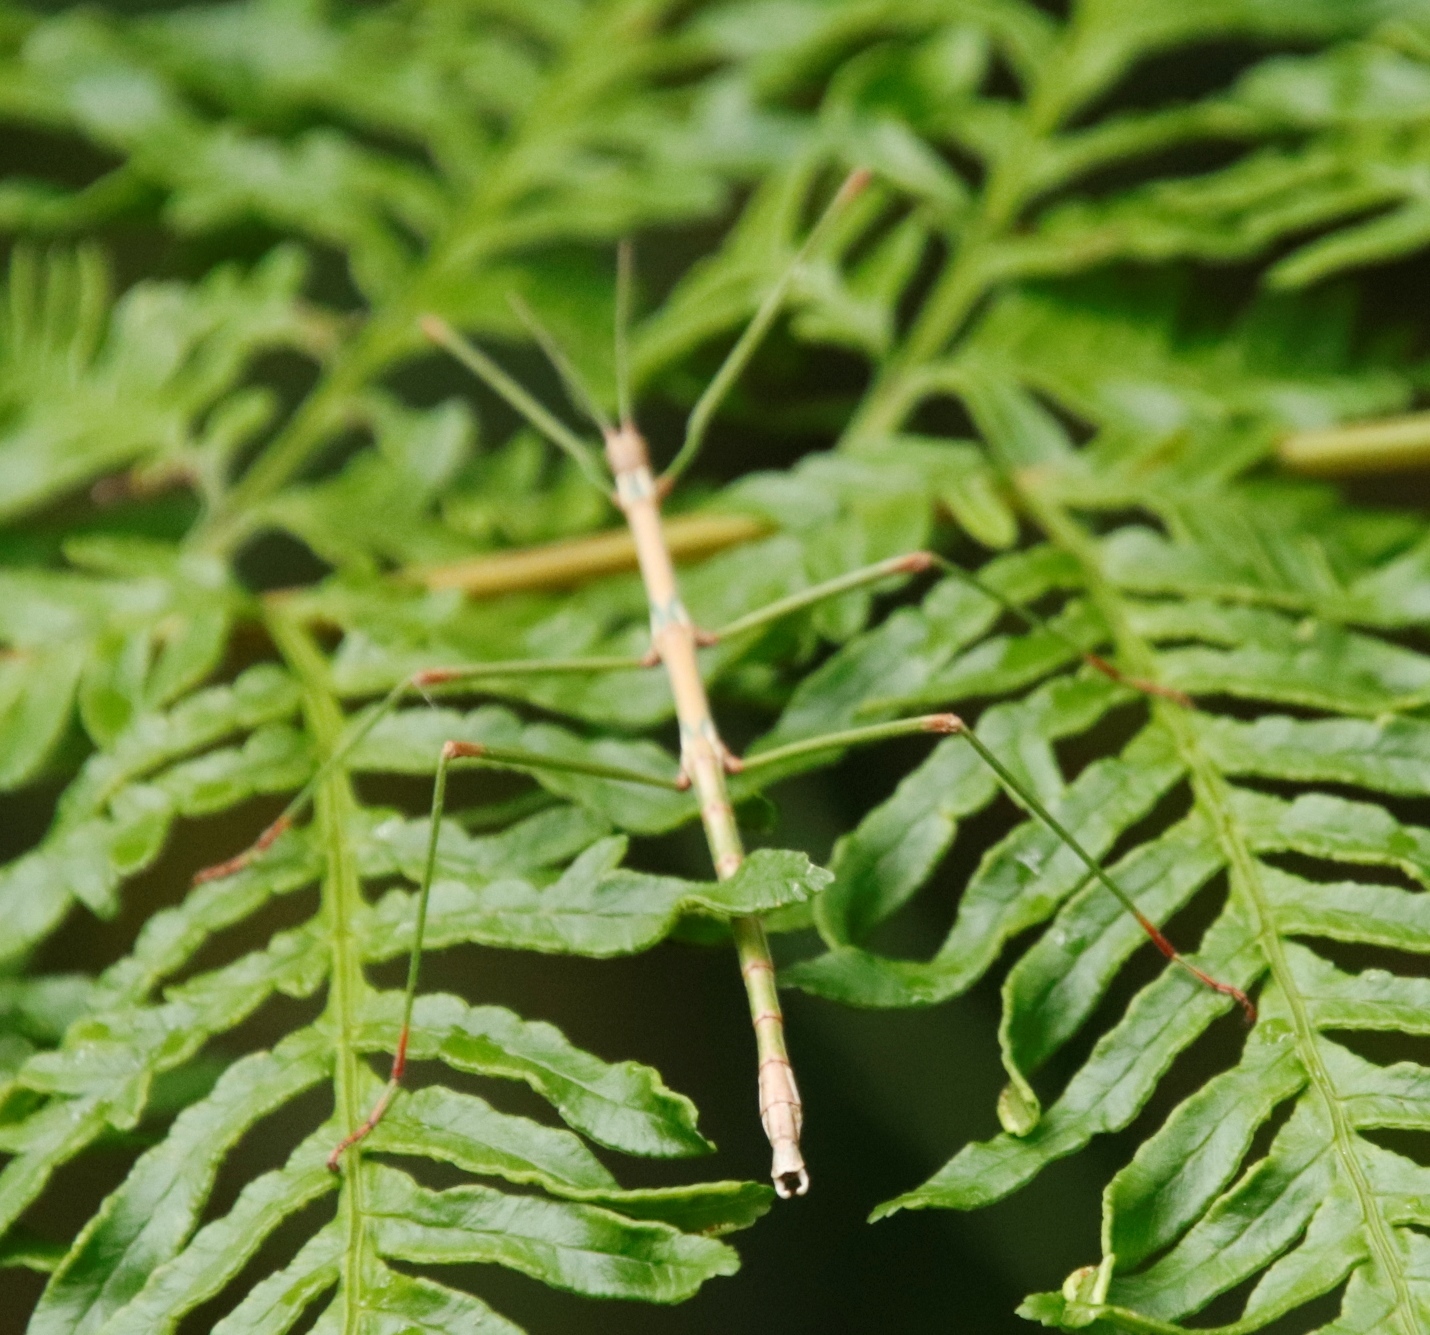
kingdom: Plantae
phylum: Tracheophyta
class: Polypodiopsida
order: Polypodiales
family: Pteridaceae
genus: Pteris
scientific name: Pteris dentata
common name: Toothed brake
